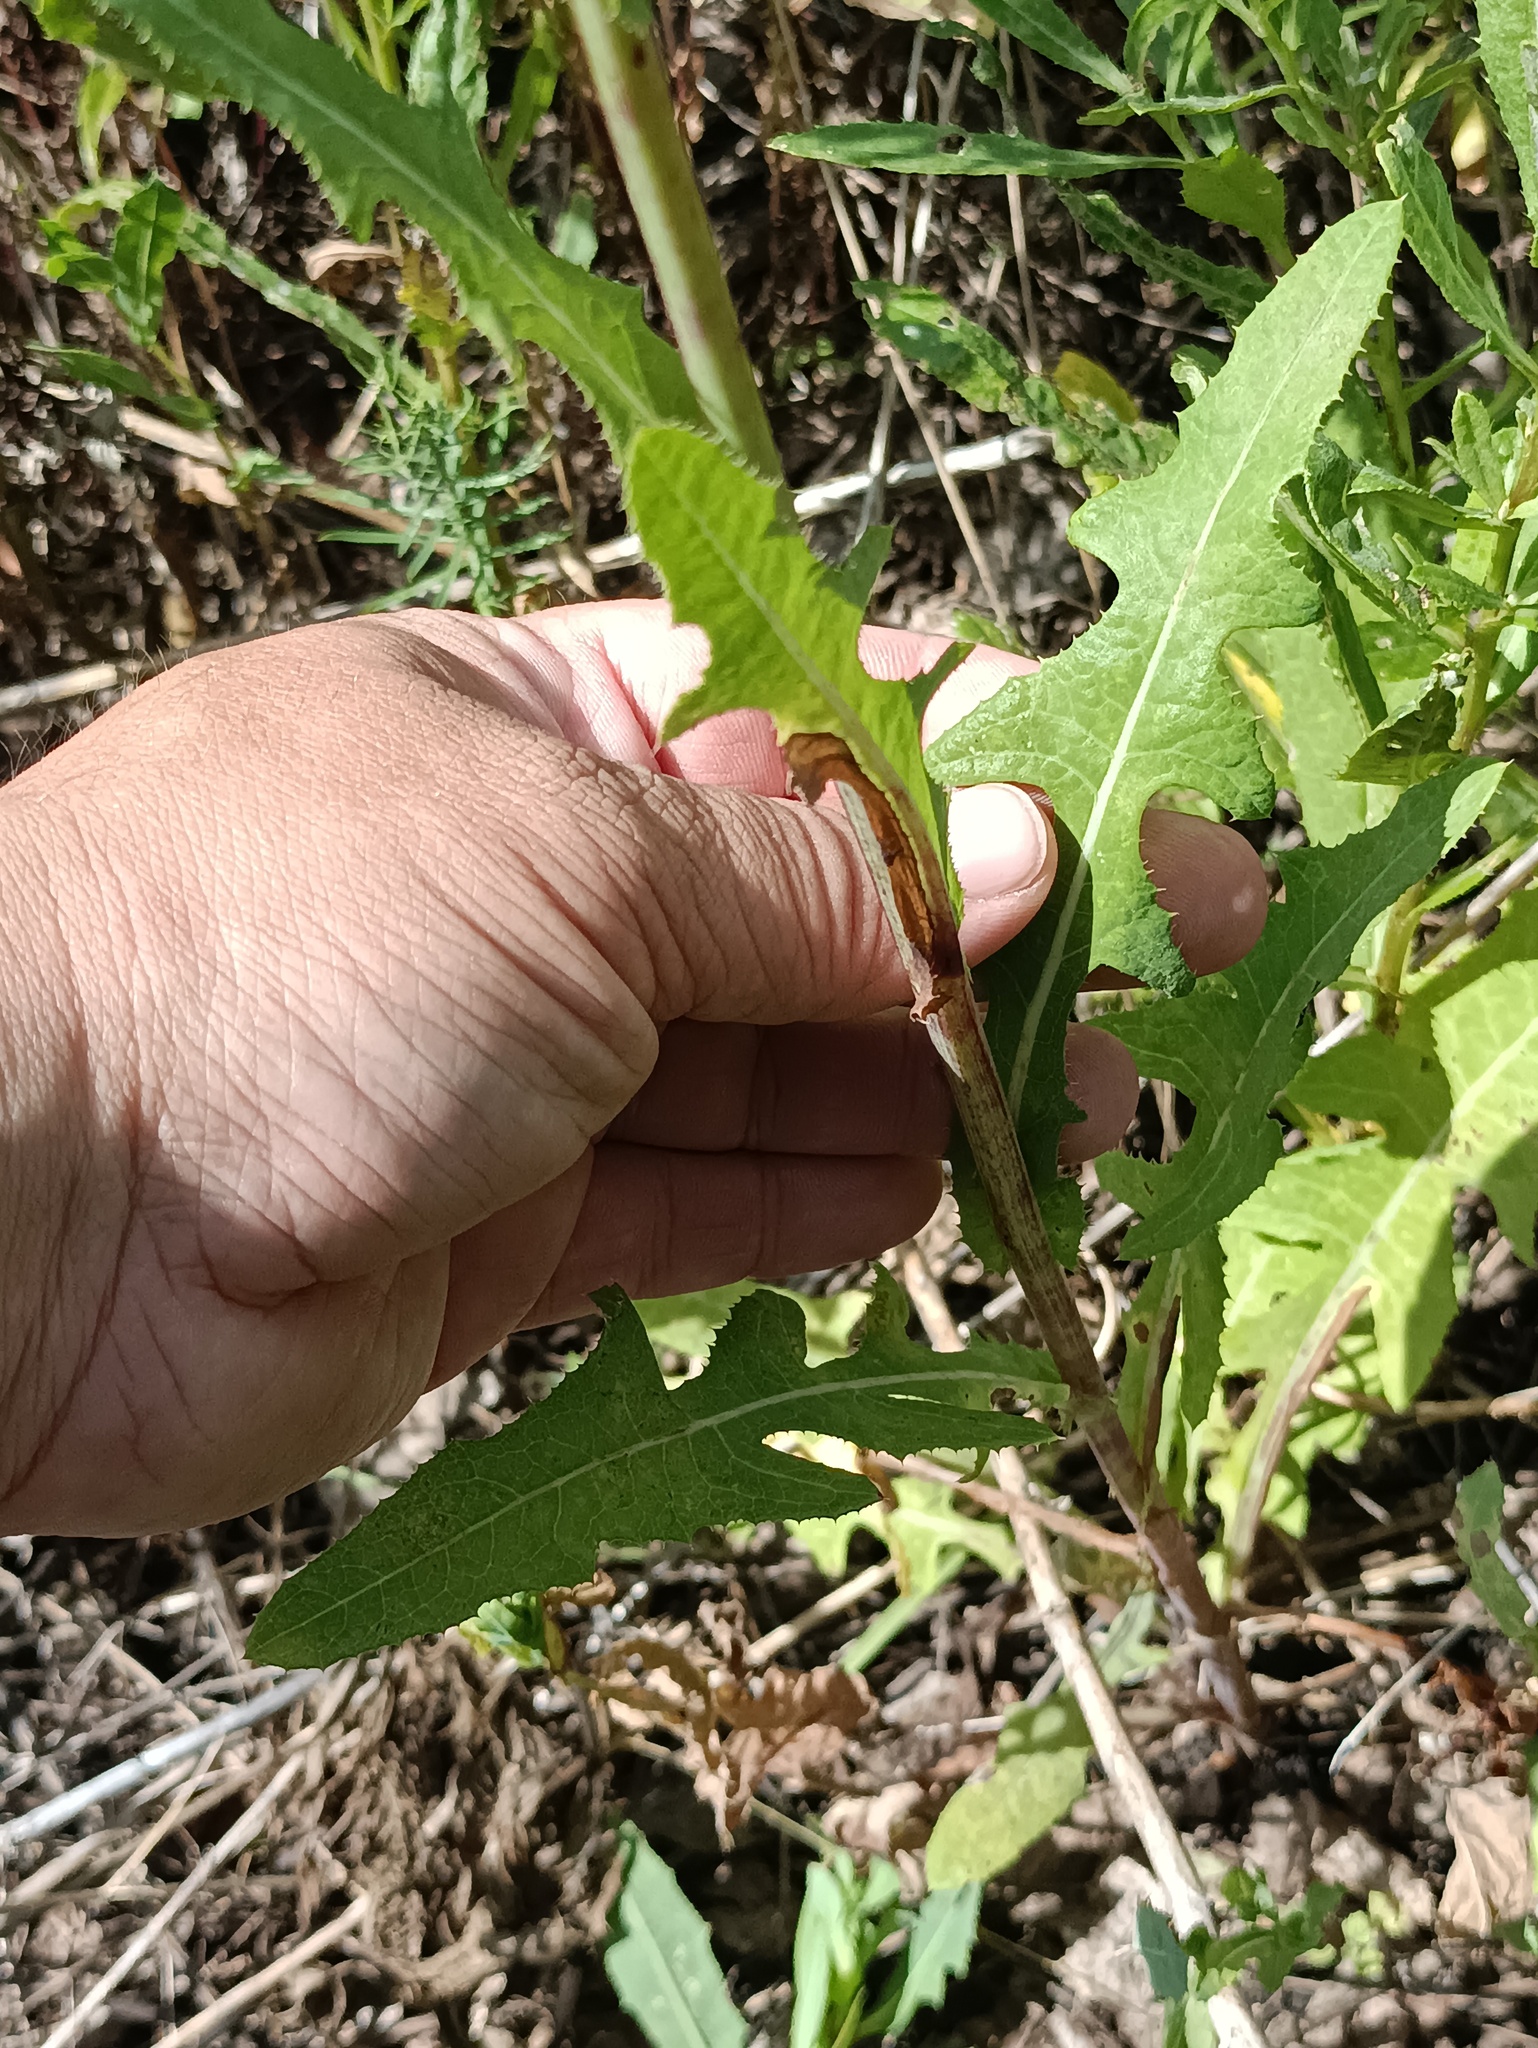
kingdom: Plantae
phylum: Tracheophyta
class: Magnoliopsida
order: Asterales
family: Asteraceae
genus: Sonchus
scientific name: Sonchus arvensis
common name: Perennial sow-thistle
